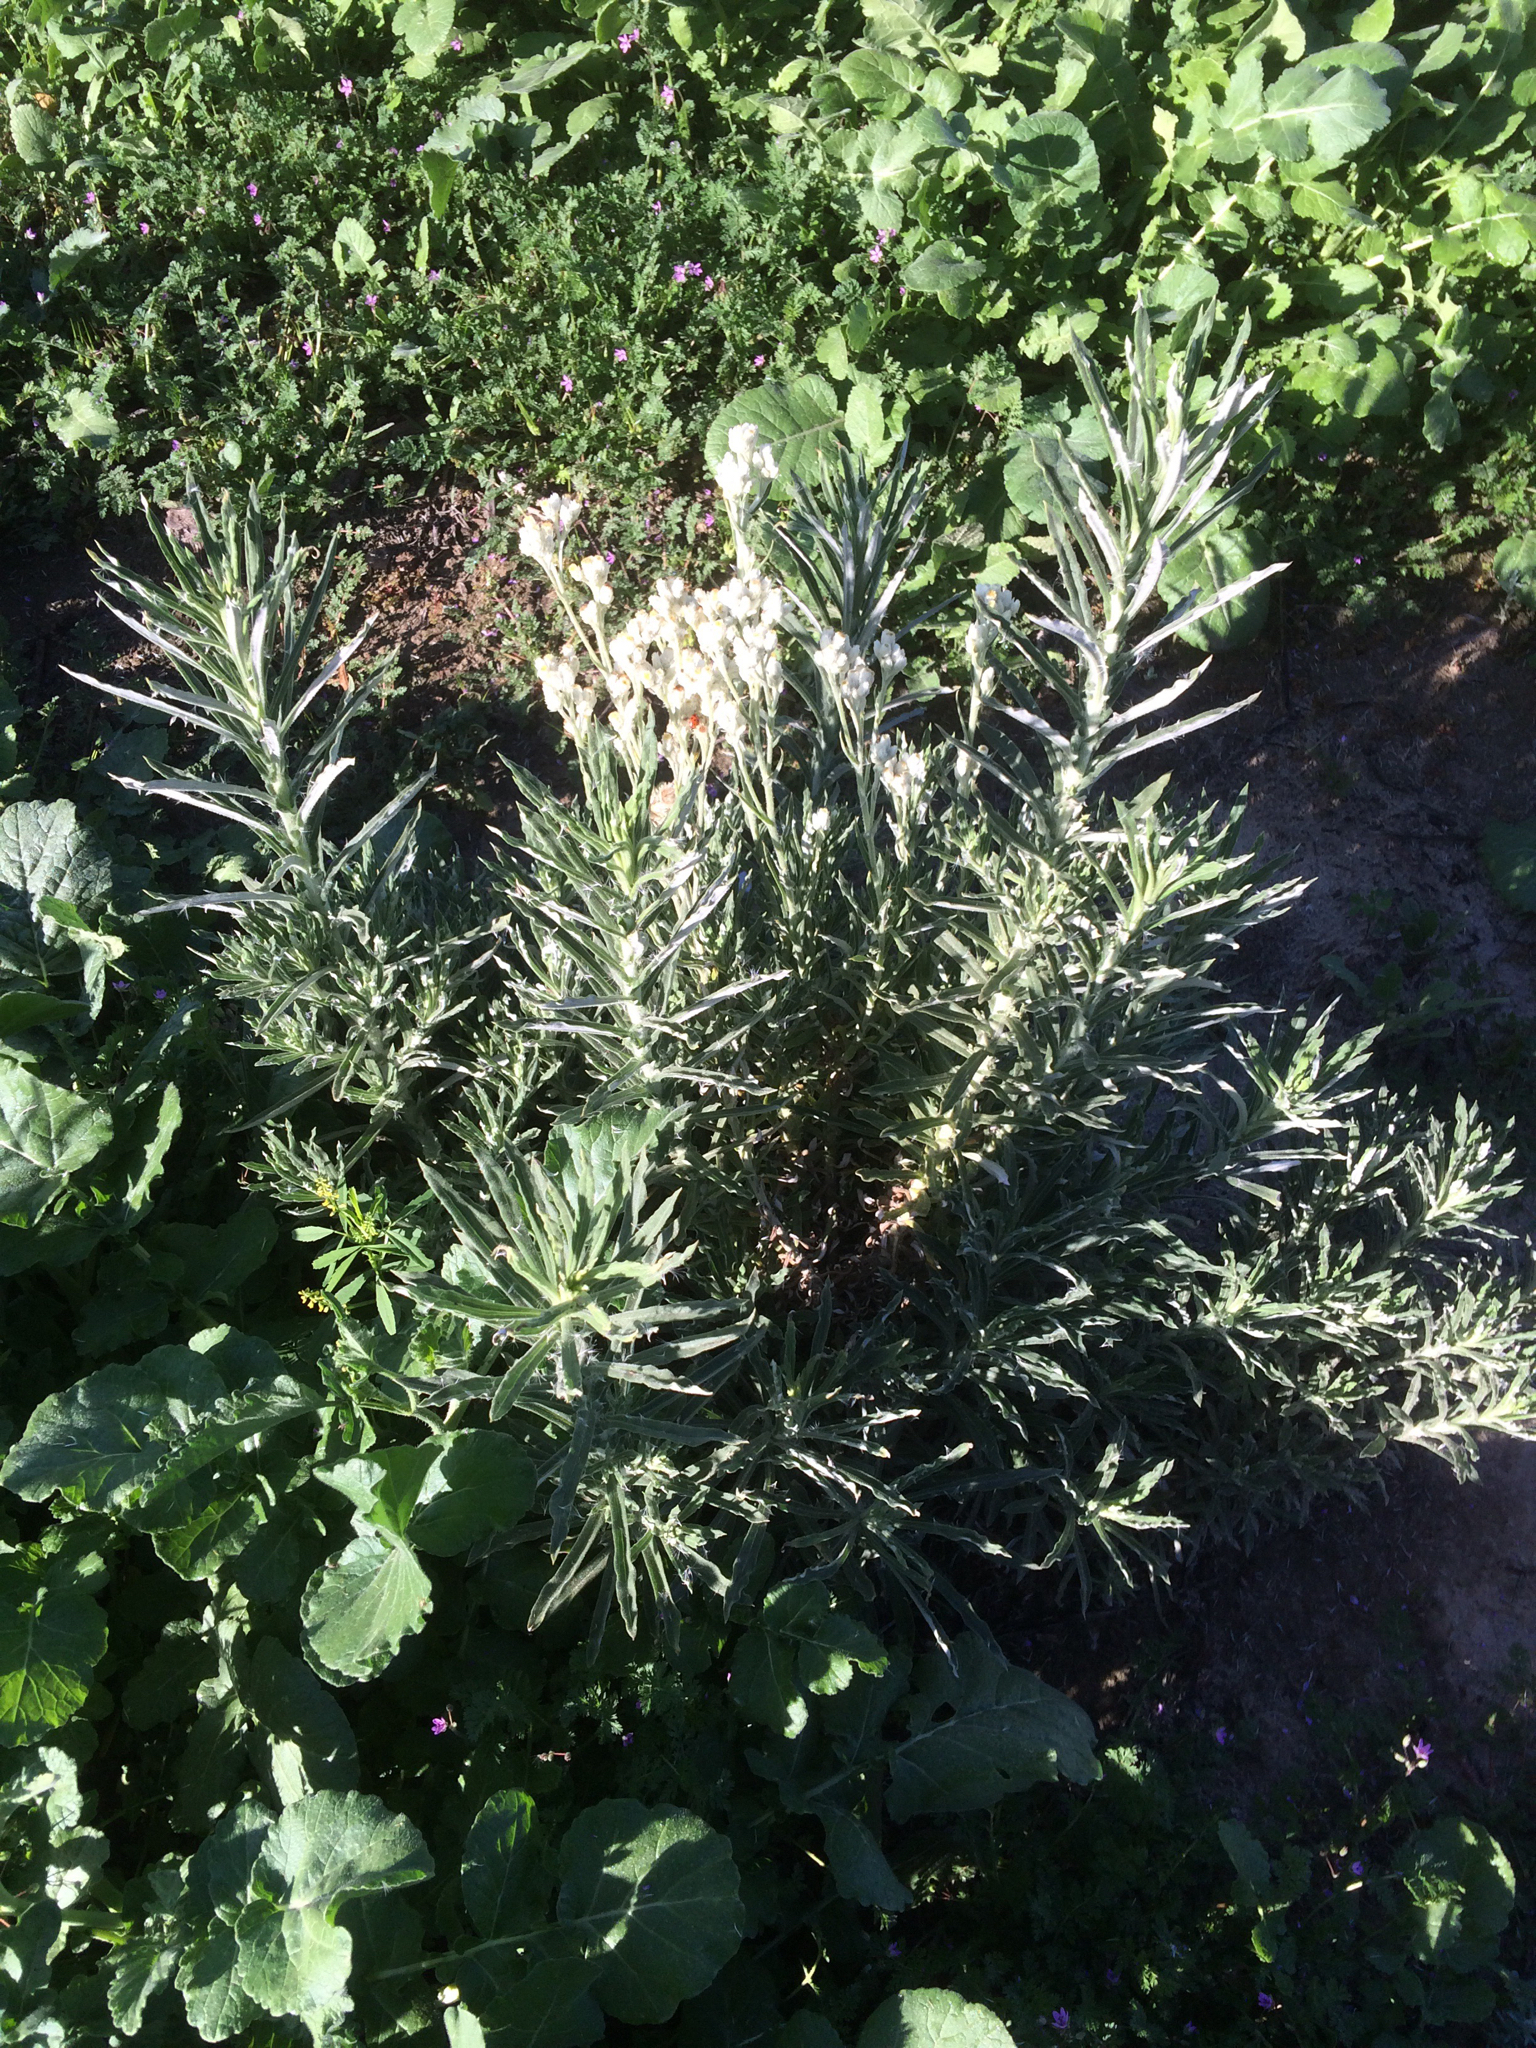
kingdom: Plantae
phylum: Tracheophyta
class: Magnoliopsida
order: Asterales
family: Asteraceae
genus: Pseudognaphalium
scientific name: Pseudognaphalium leucocephalum
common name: White cudweed
